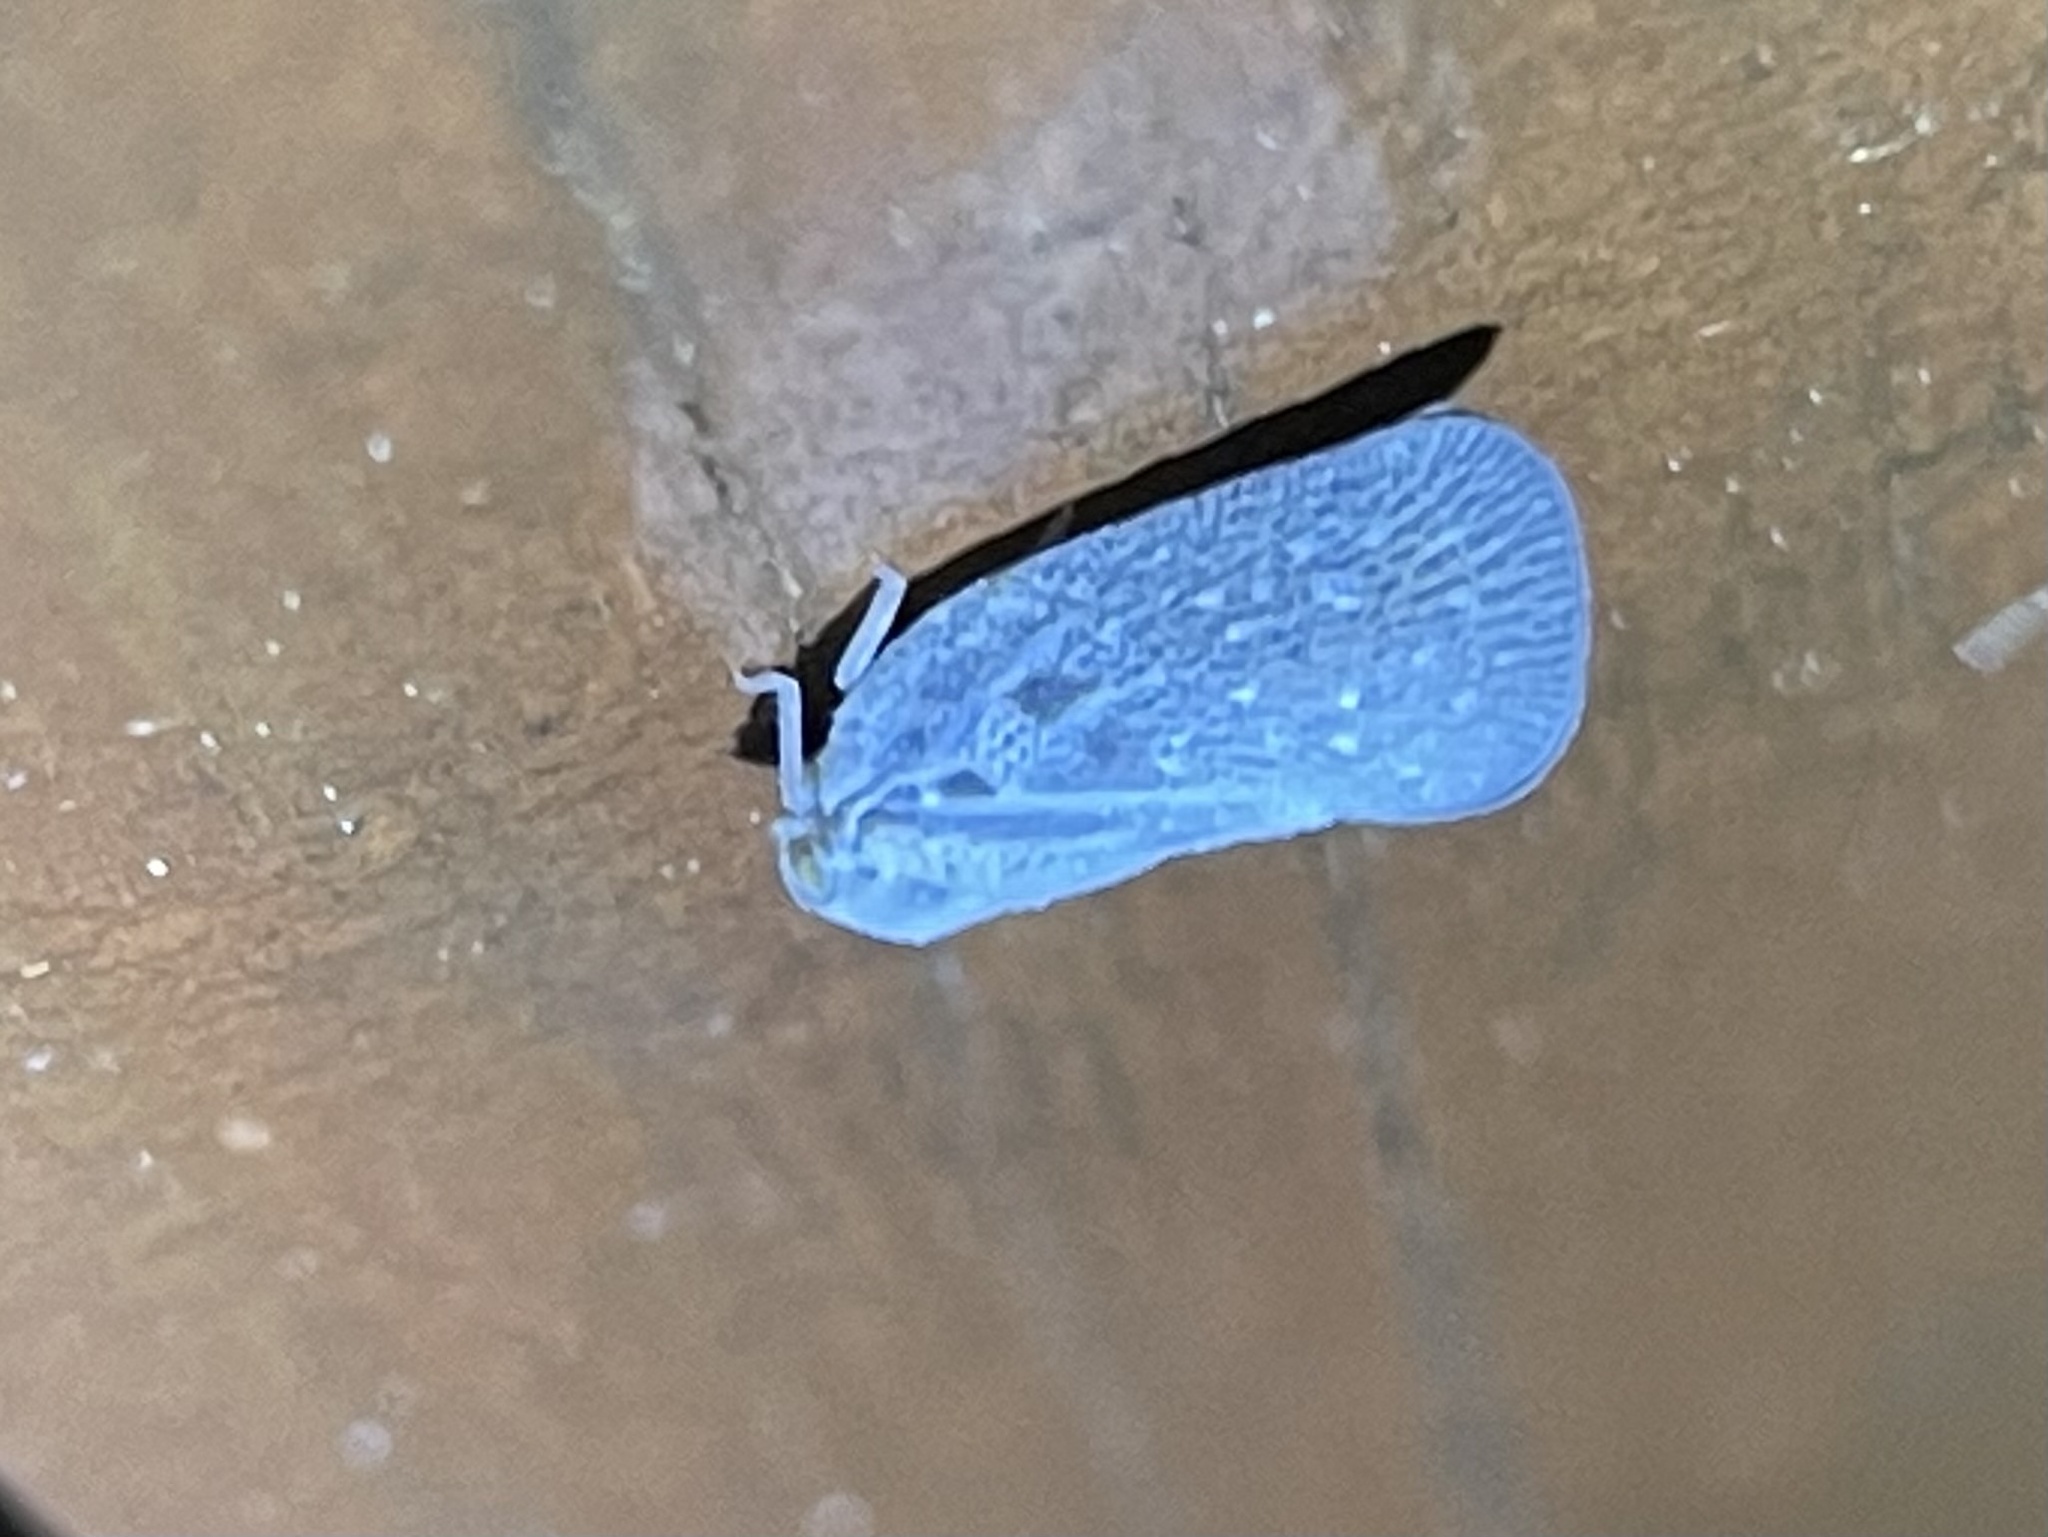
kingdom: Animalia
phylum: Arthropoda
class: Insecta
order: Hemiptera
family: Flatidae
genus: Metcalfa
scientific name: Metcalfa pruinosa
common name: Citrus flatid planthopper
